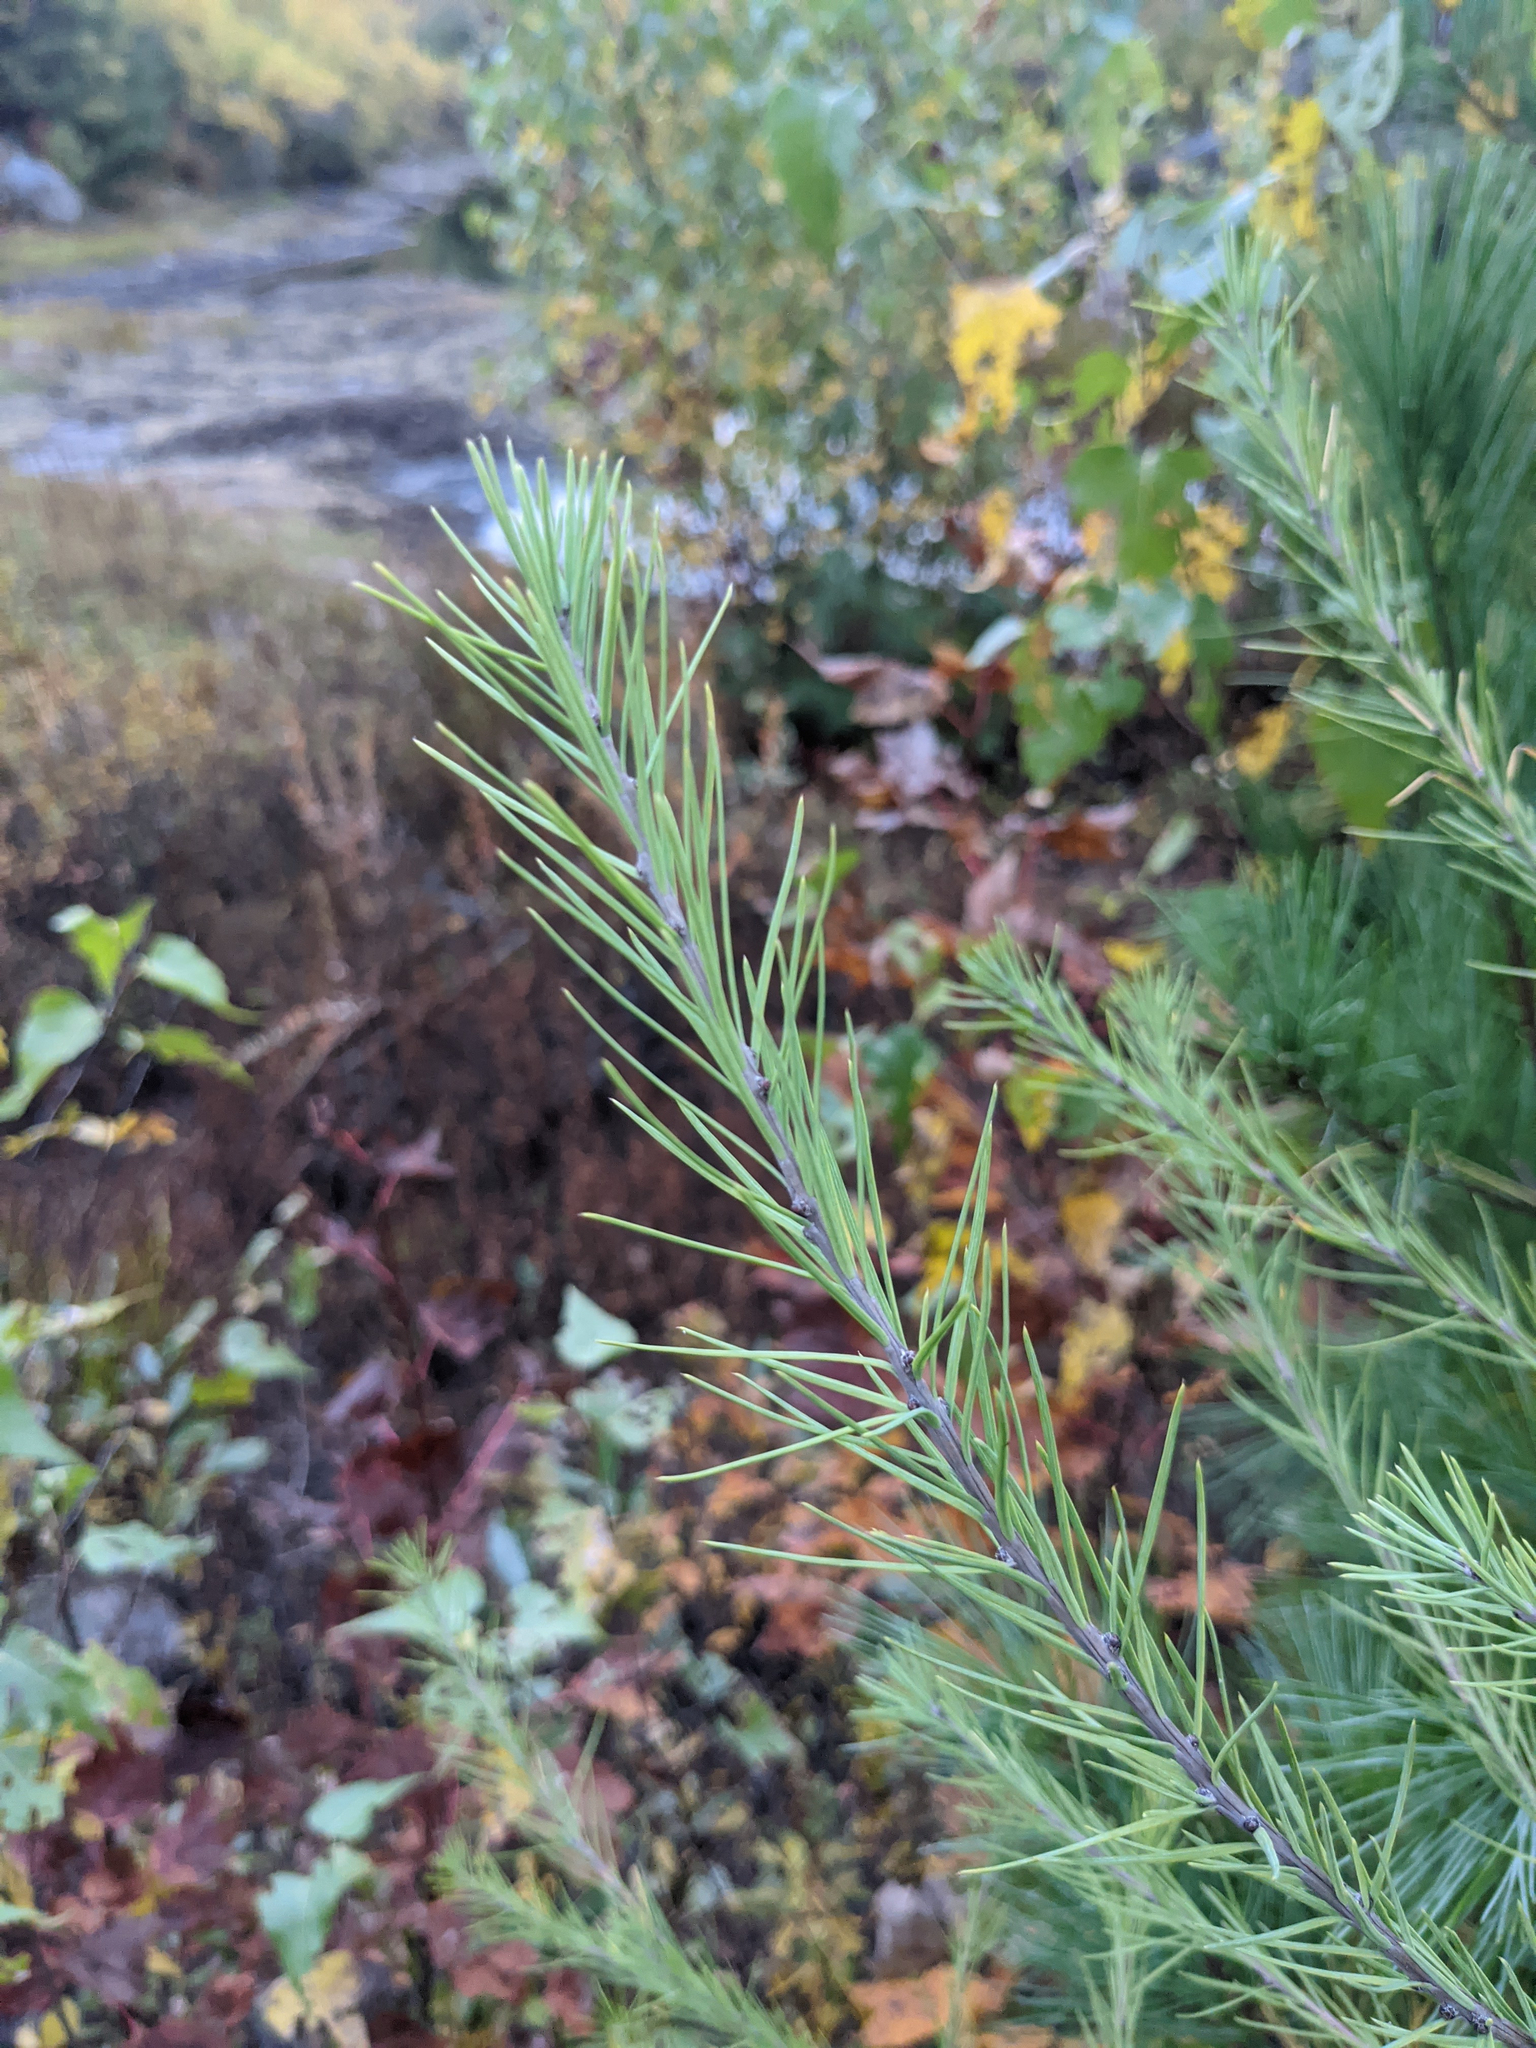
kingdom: Plantae
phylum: Tracheophyta
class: Pinopsida
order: Pinales
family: Pinaceae
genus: Larix
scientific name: Larix laricina
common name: American larch
